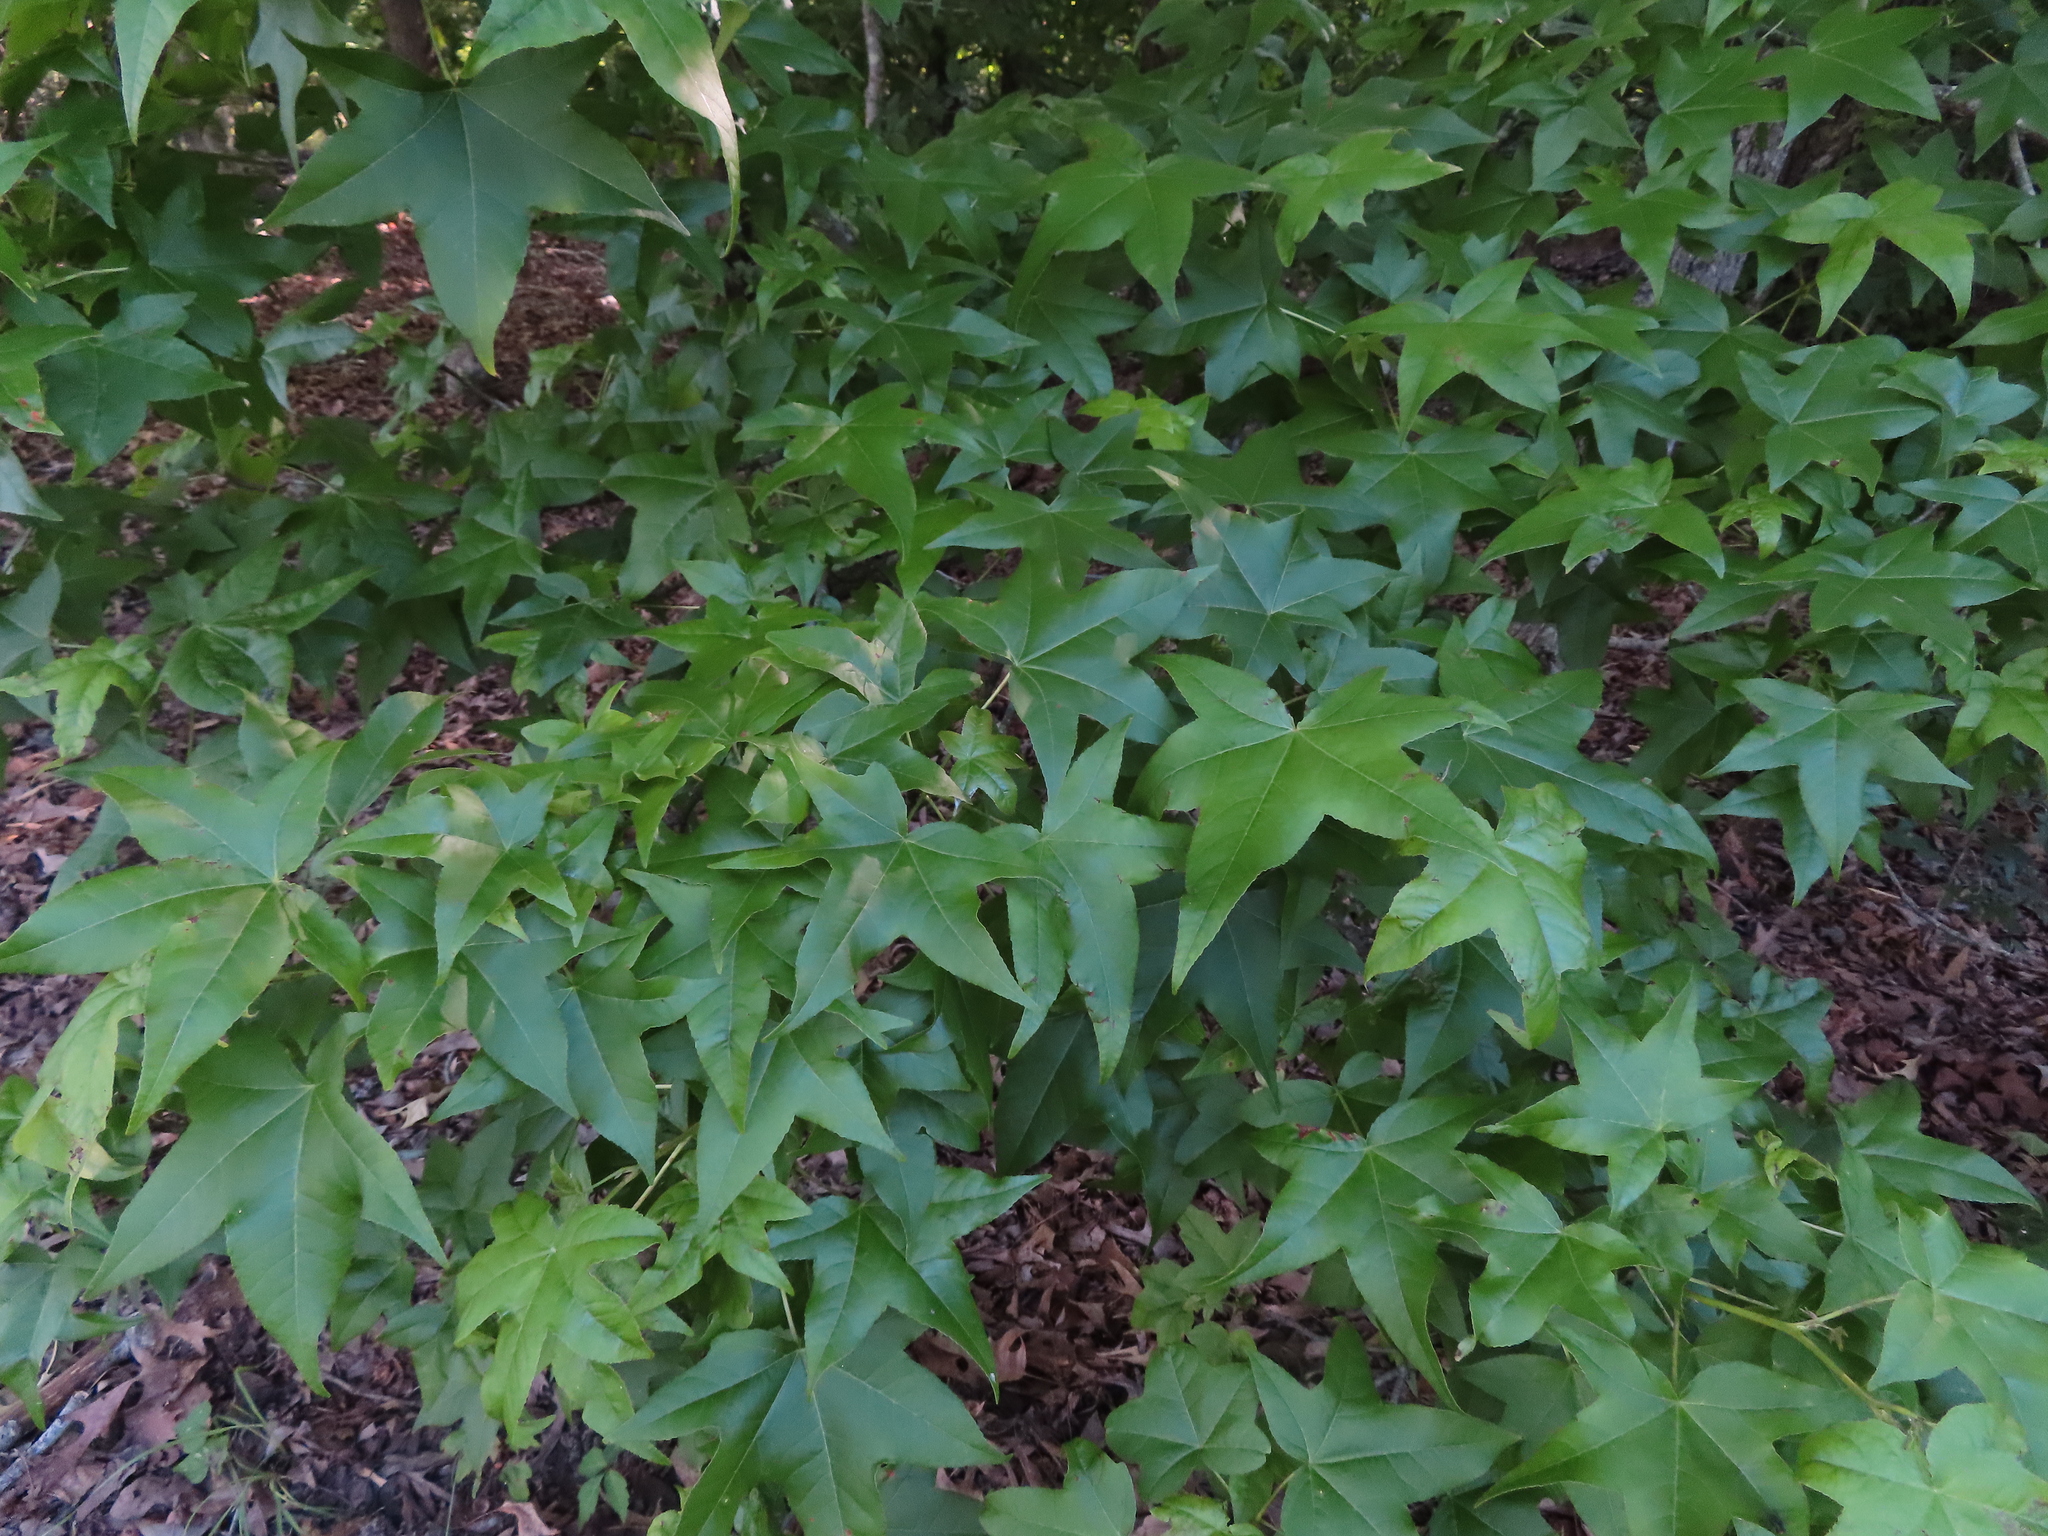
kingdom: Plantae
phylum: Tracheophyta
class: Magnoliopsida
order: Saxifragales
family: Altingiaceae
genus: Liquidambar
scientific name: Liquidambar styraciflua
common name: Sweet gum
